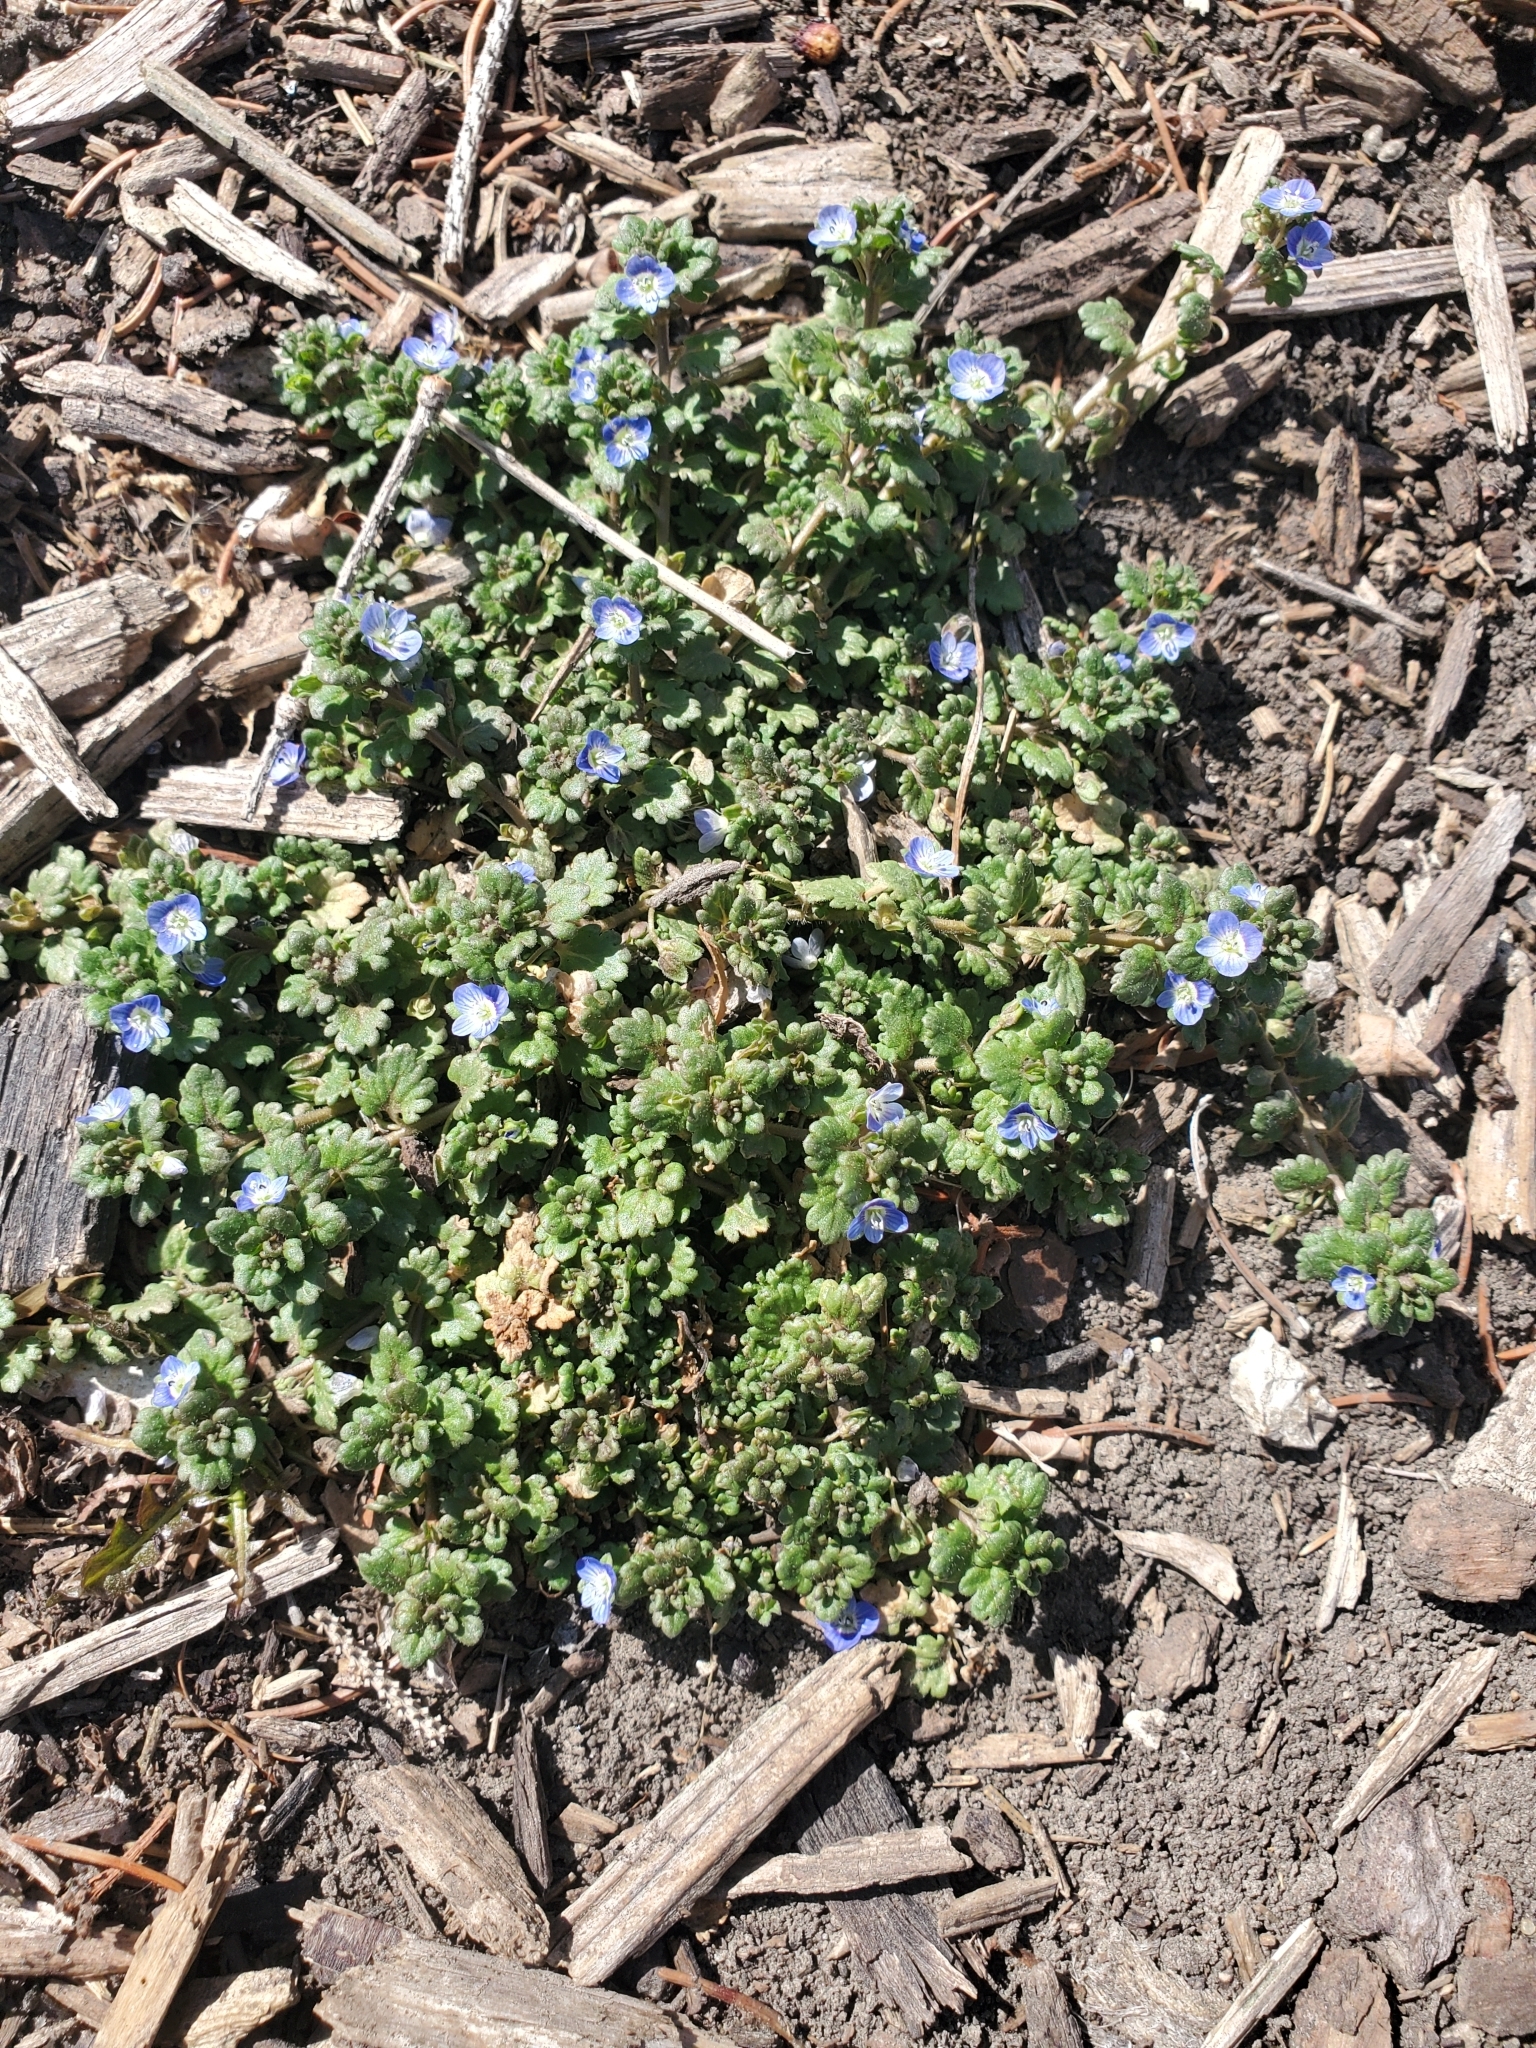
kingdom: Plantae
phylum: Tracheophyta
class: Magnoliopsida
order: Lamiales
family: Plantaginaceae
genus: Veronica
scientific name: Veronica polita
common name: Grey field-speedwell
